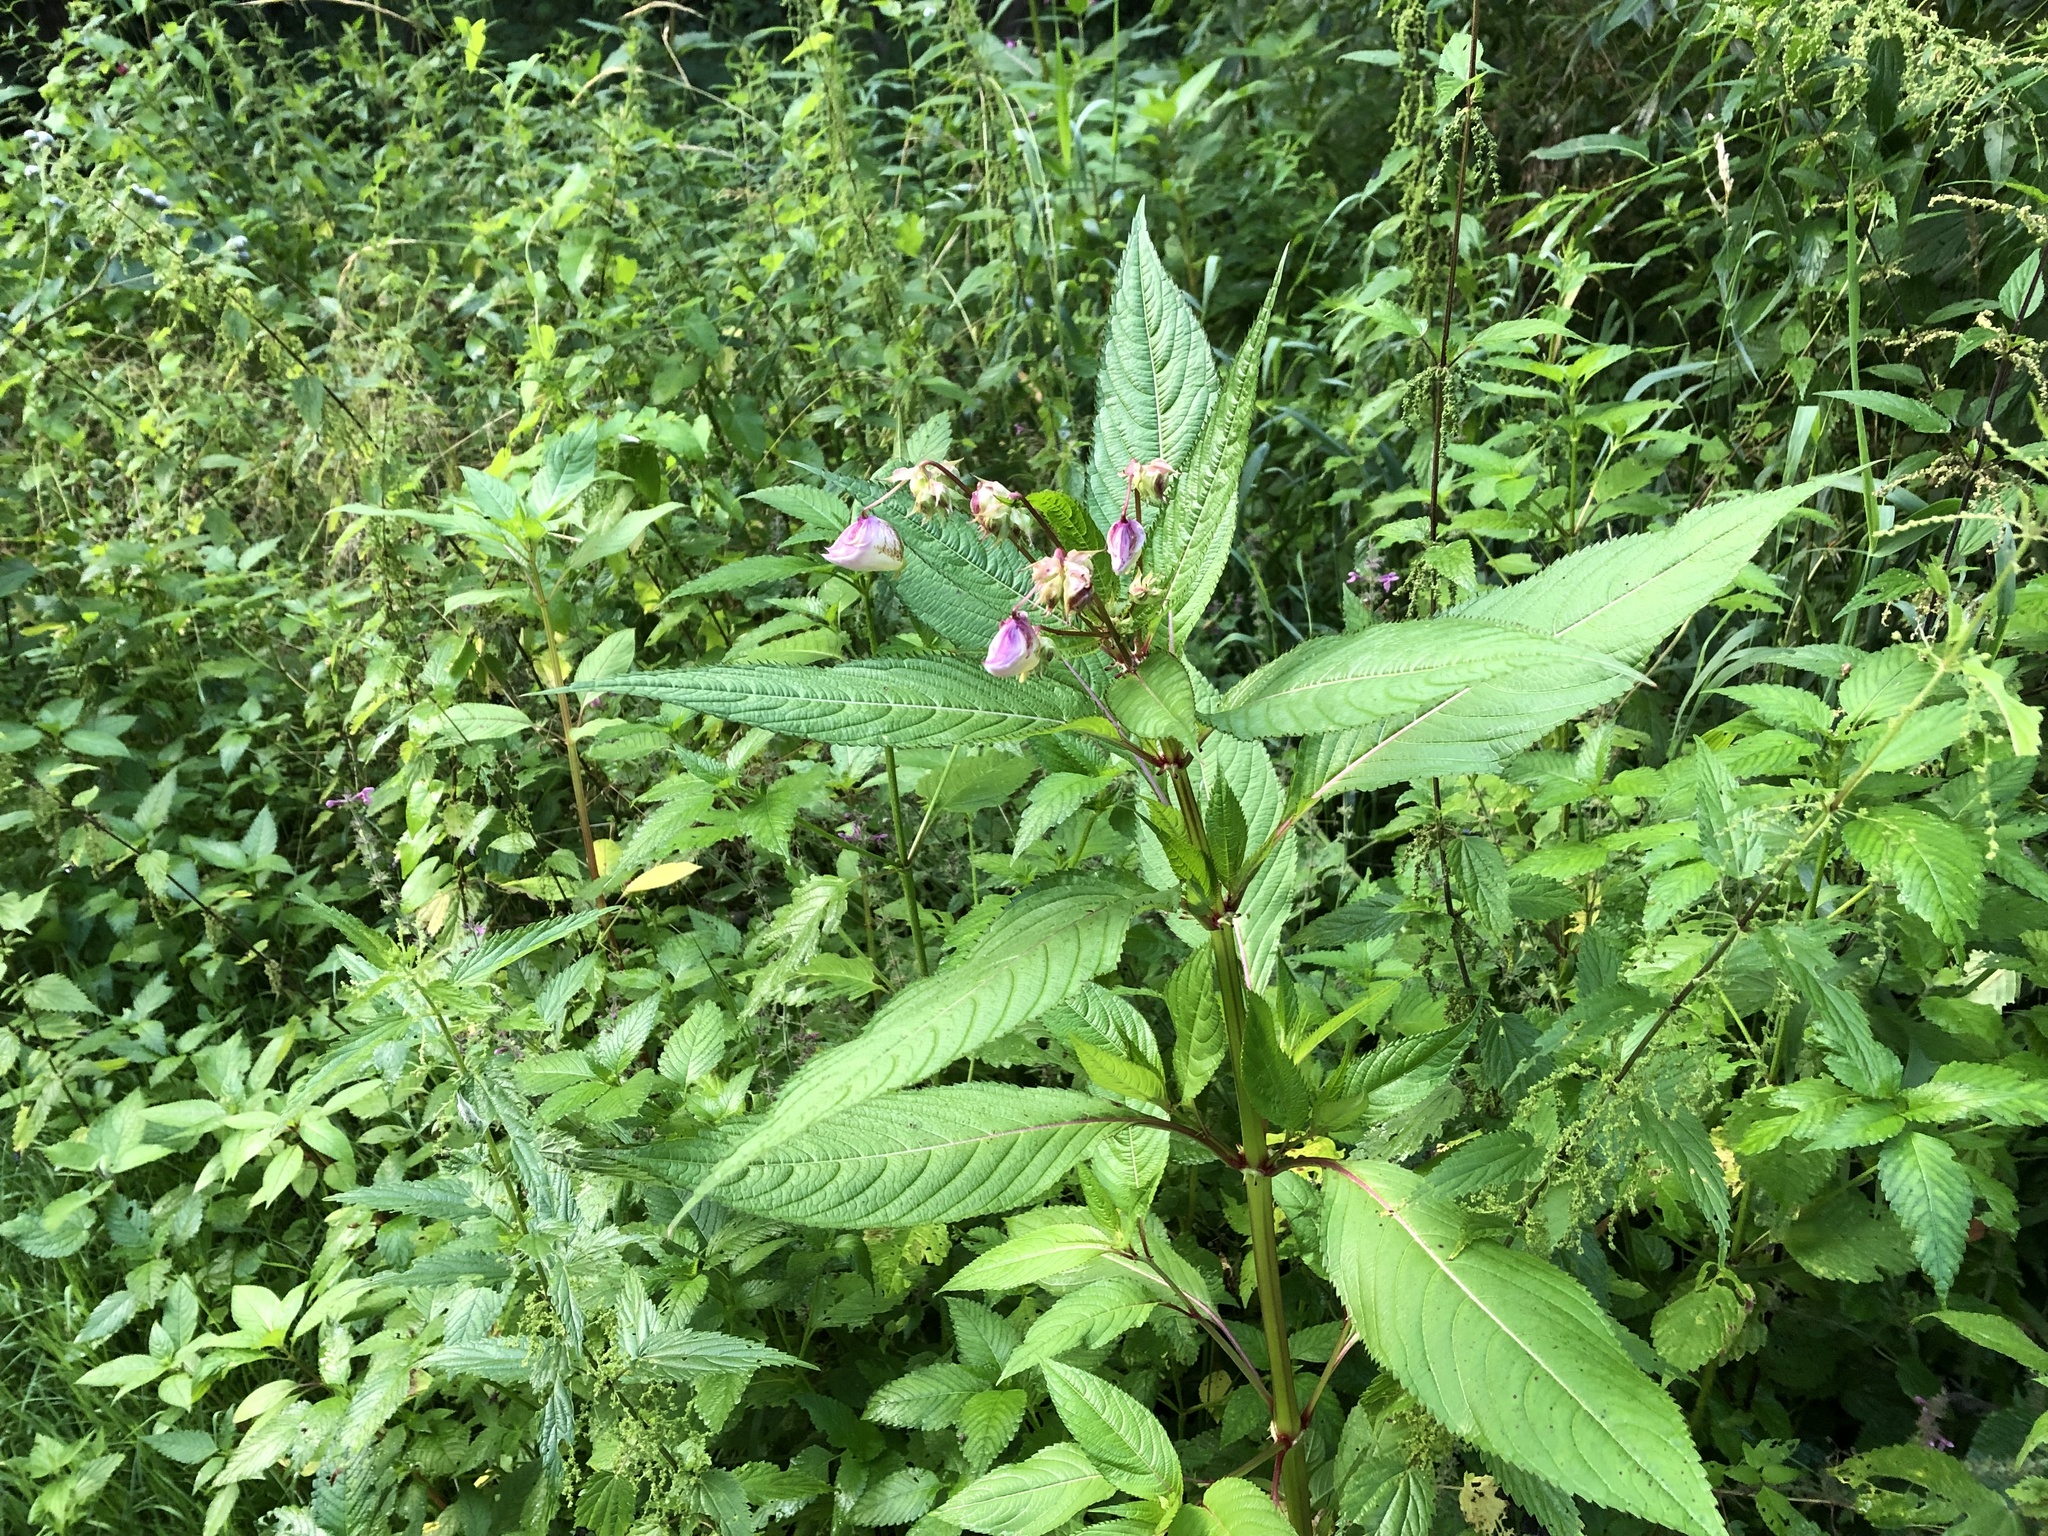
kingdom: Plantae
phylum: Tracheophyta
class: Magnoliopsida
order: Ericales
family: Balsaminaceae
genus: Impatiens
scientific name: Impatiens glandulifera
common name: Himalayan balsam
